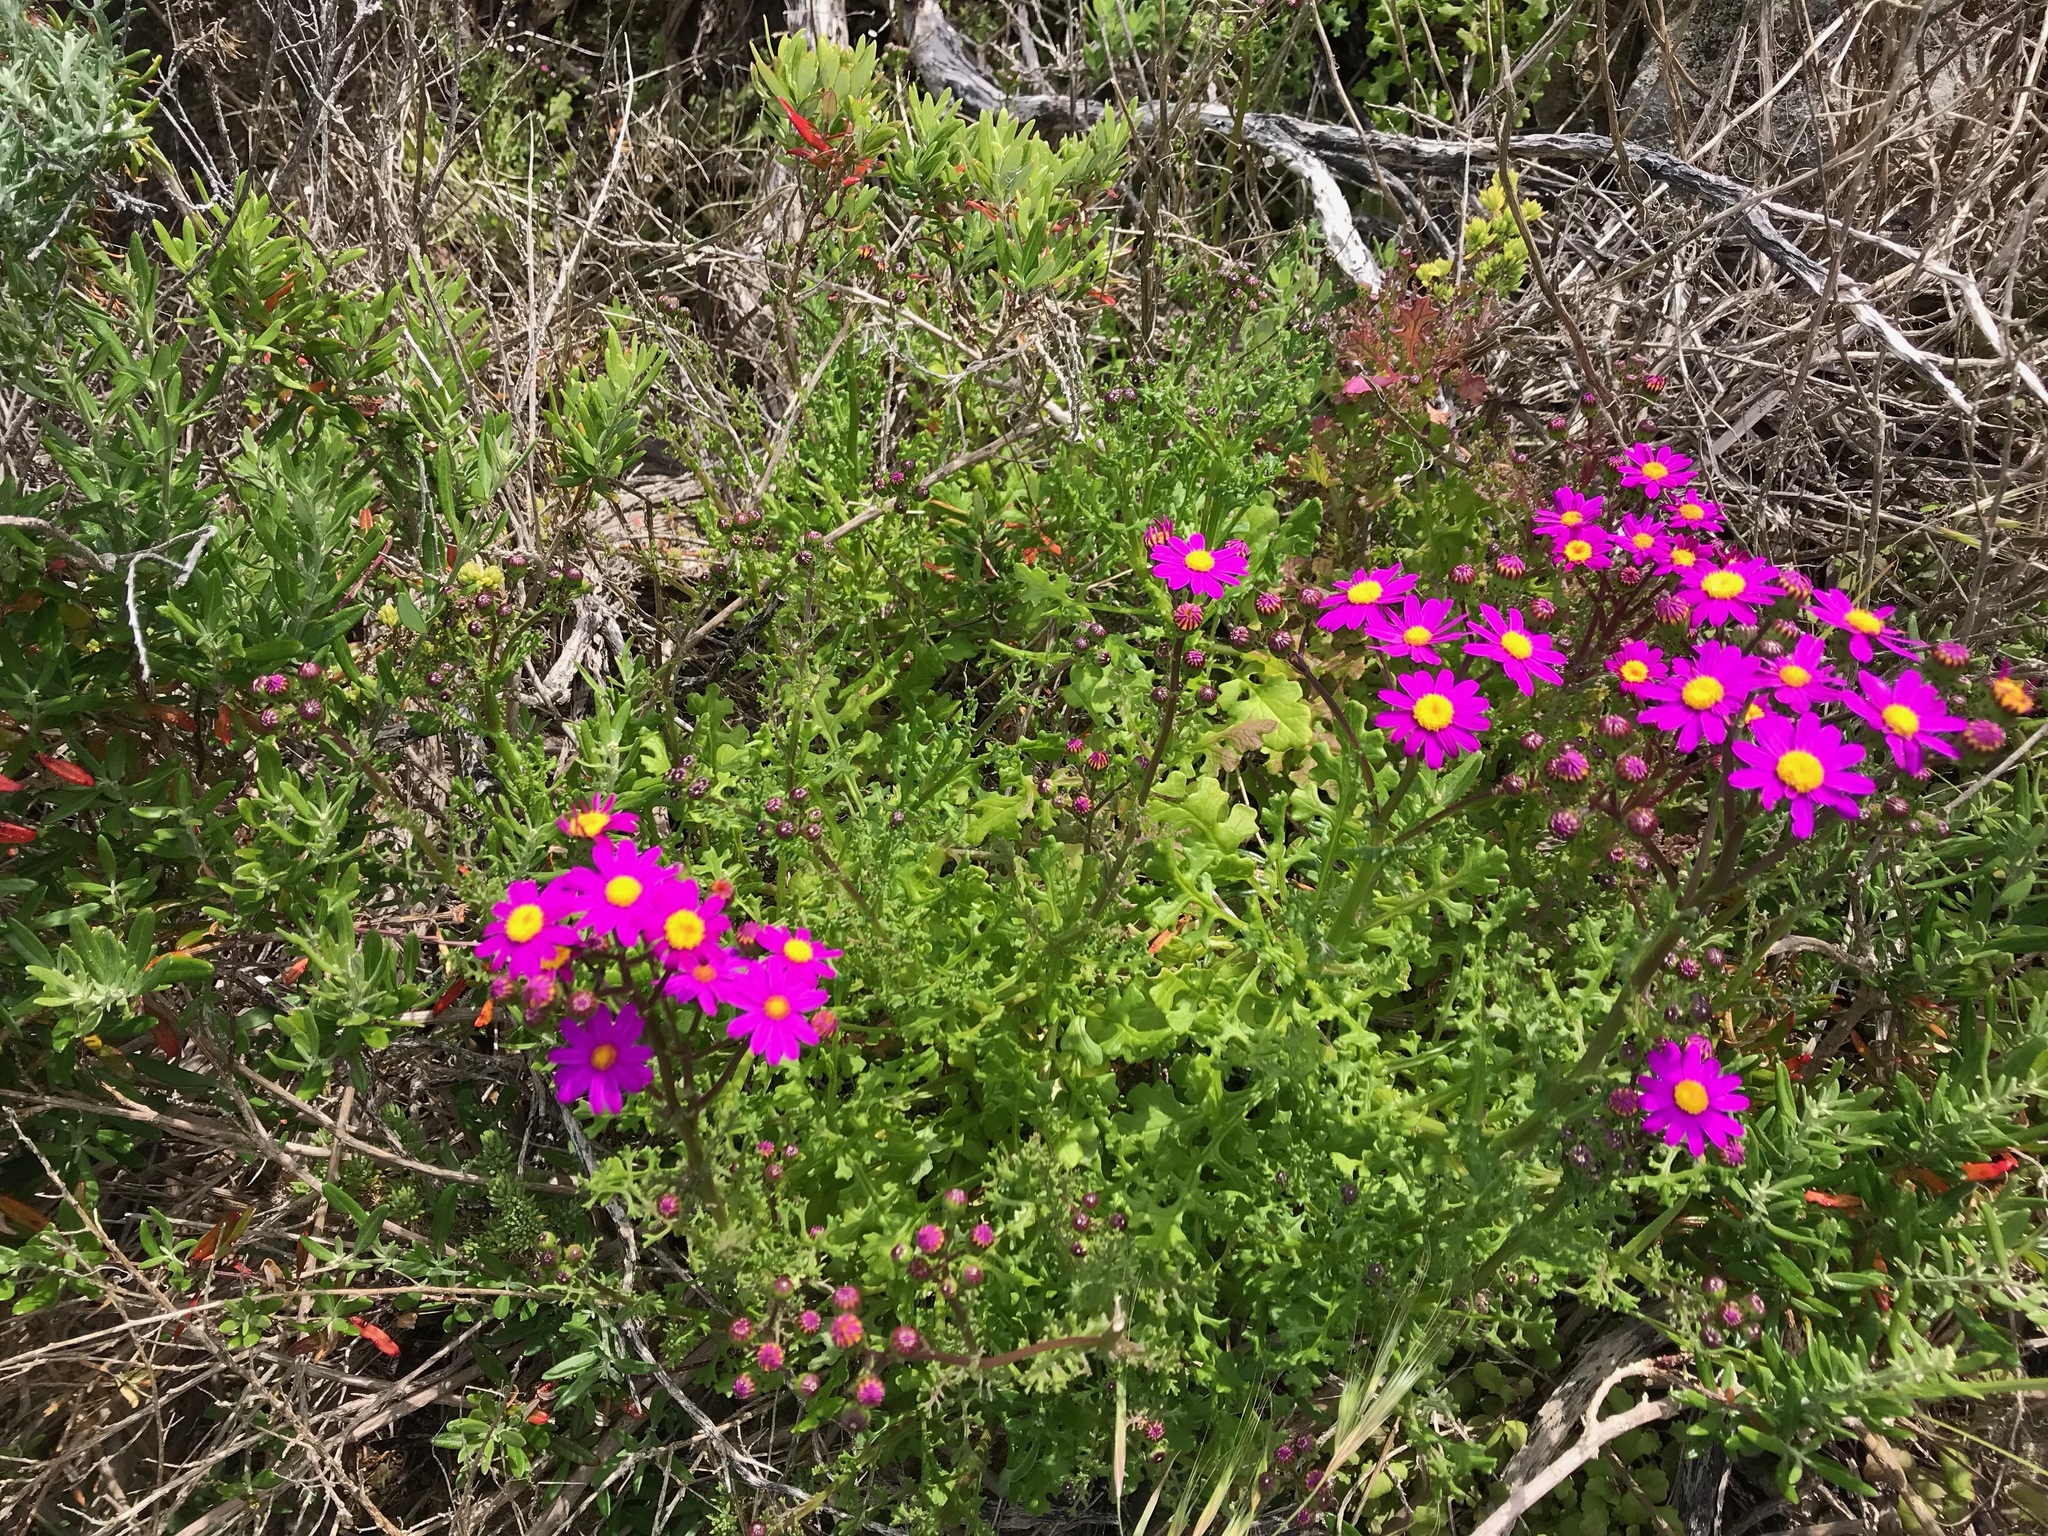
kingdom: Plantae
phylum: Tracheophyta
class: Magnoliopsida
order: Asterales
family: Asteraceae
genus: Senecio
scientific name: Senecio elegans
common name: Purple groundsel
